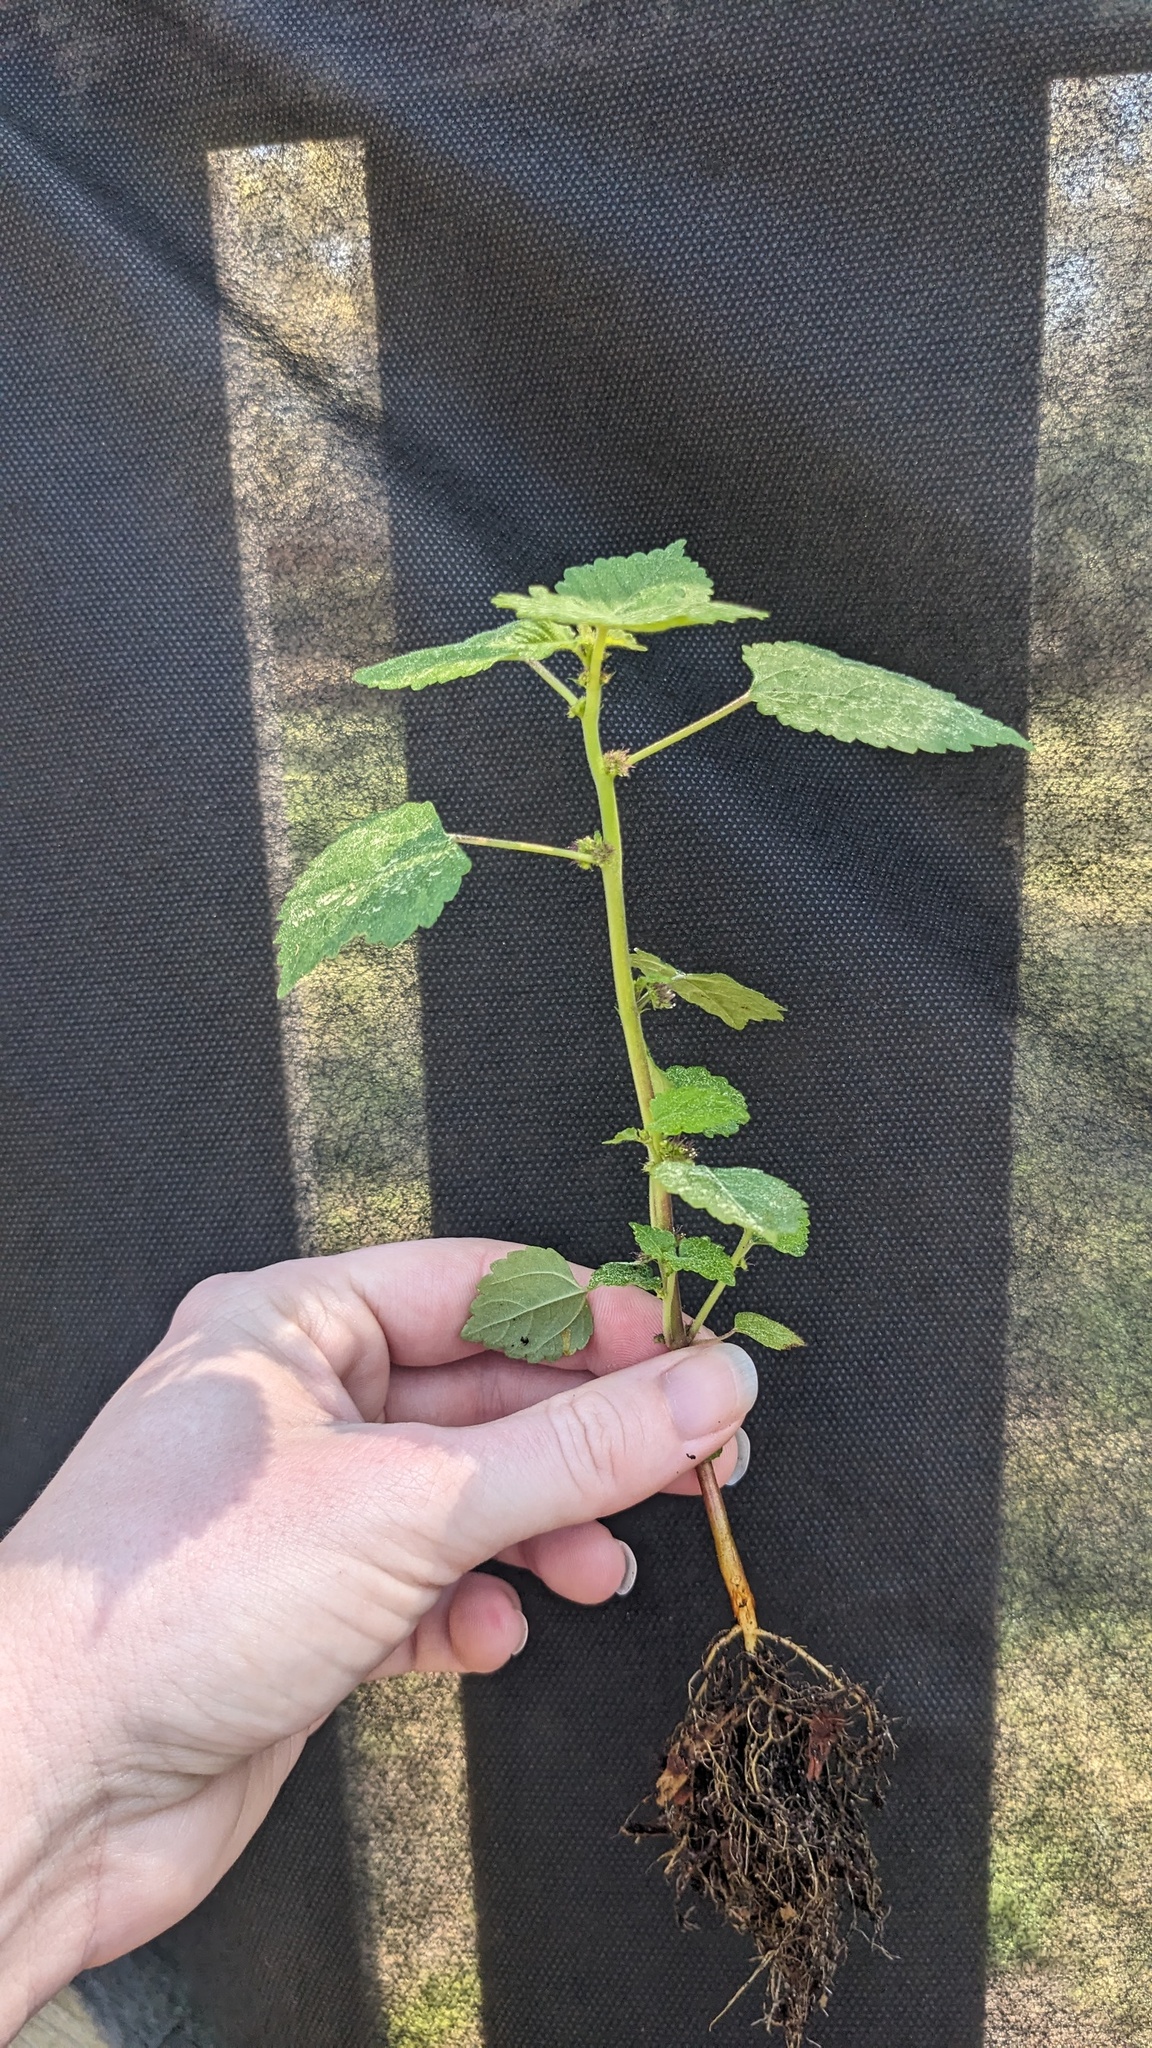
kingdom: Plantae
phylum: Tracheophyta
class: Magnoliopsida
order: Rosales
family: Moraceae
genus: Fatoua
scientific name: Fatoua villosa
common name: Hairy crabweed
